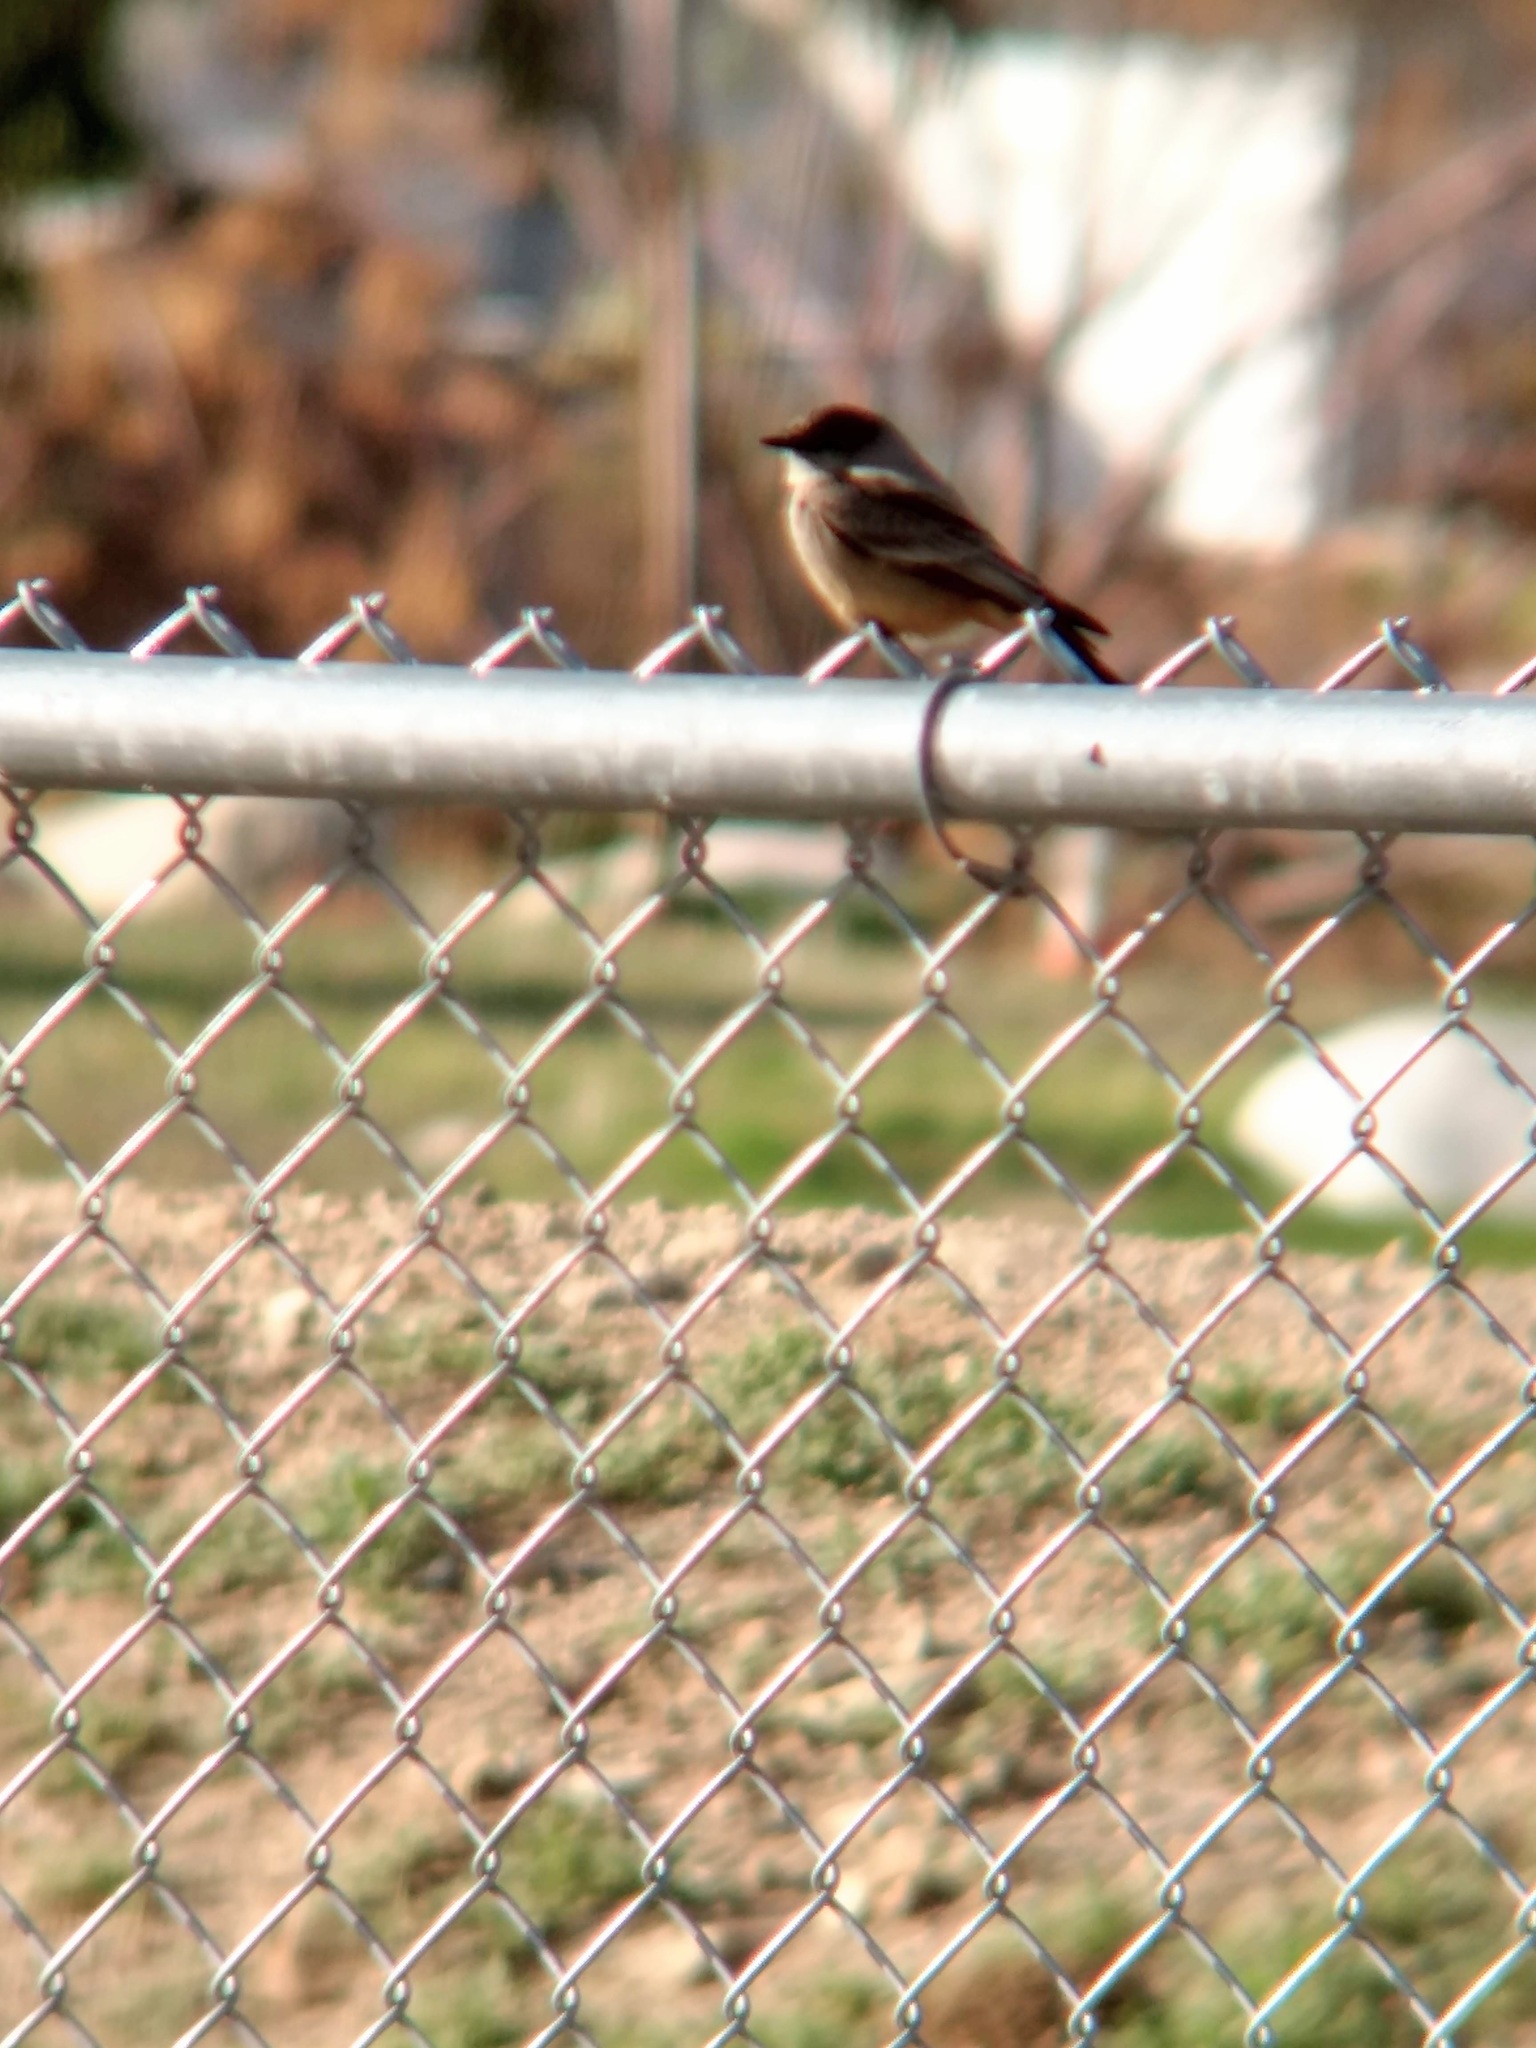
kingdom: Animalia
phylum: Chordata
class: Aves
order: Passeriformes
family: Tyrannidae
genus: Sayornis
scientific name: Sayornis saya
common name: Say's phoebe
